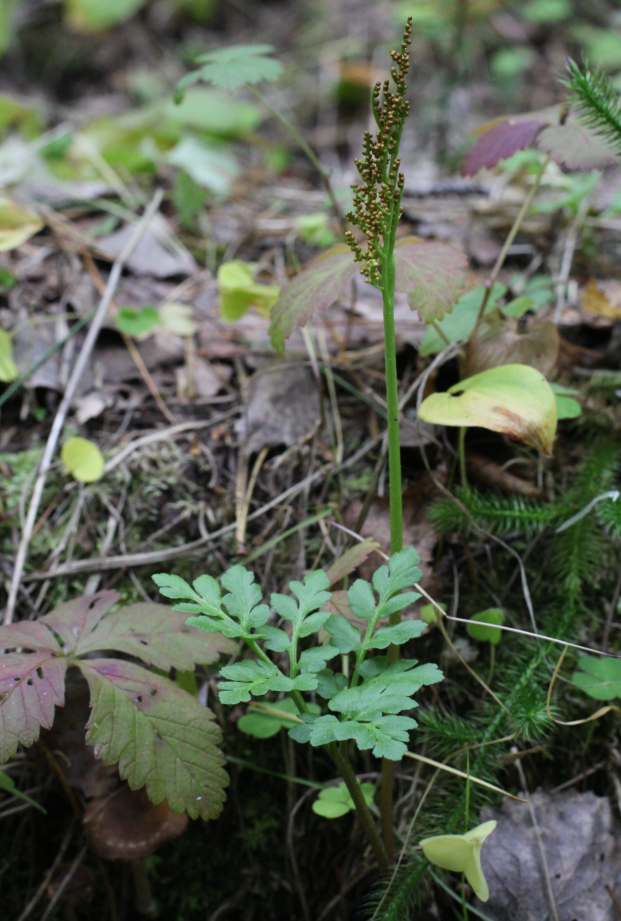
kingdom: Plantae
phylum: Tracheophyta
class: Polypodiopsida
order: Ophioglossales
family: Ophioglossaceae
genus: Sceptridium
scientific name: Sceptridium multifidum
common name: Leathery grape fern
